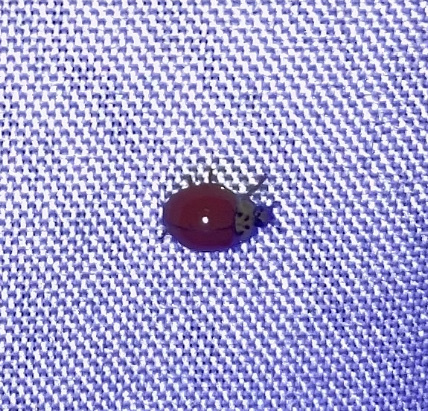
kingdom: Animalia
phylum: Arthropoda
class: Insecta
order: Coleoptera
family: Coccinellidae
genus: Harmonia
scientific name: Harmonia axyridis
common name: Harlequin ladybird
